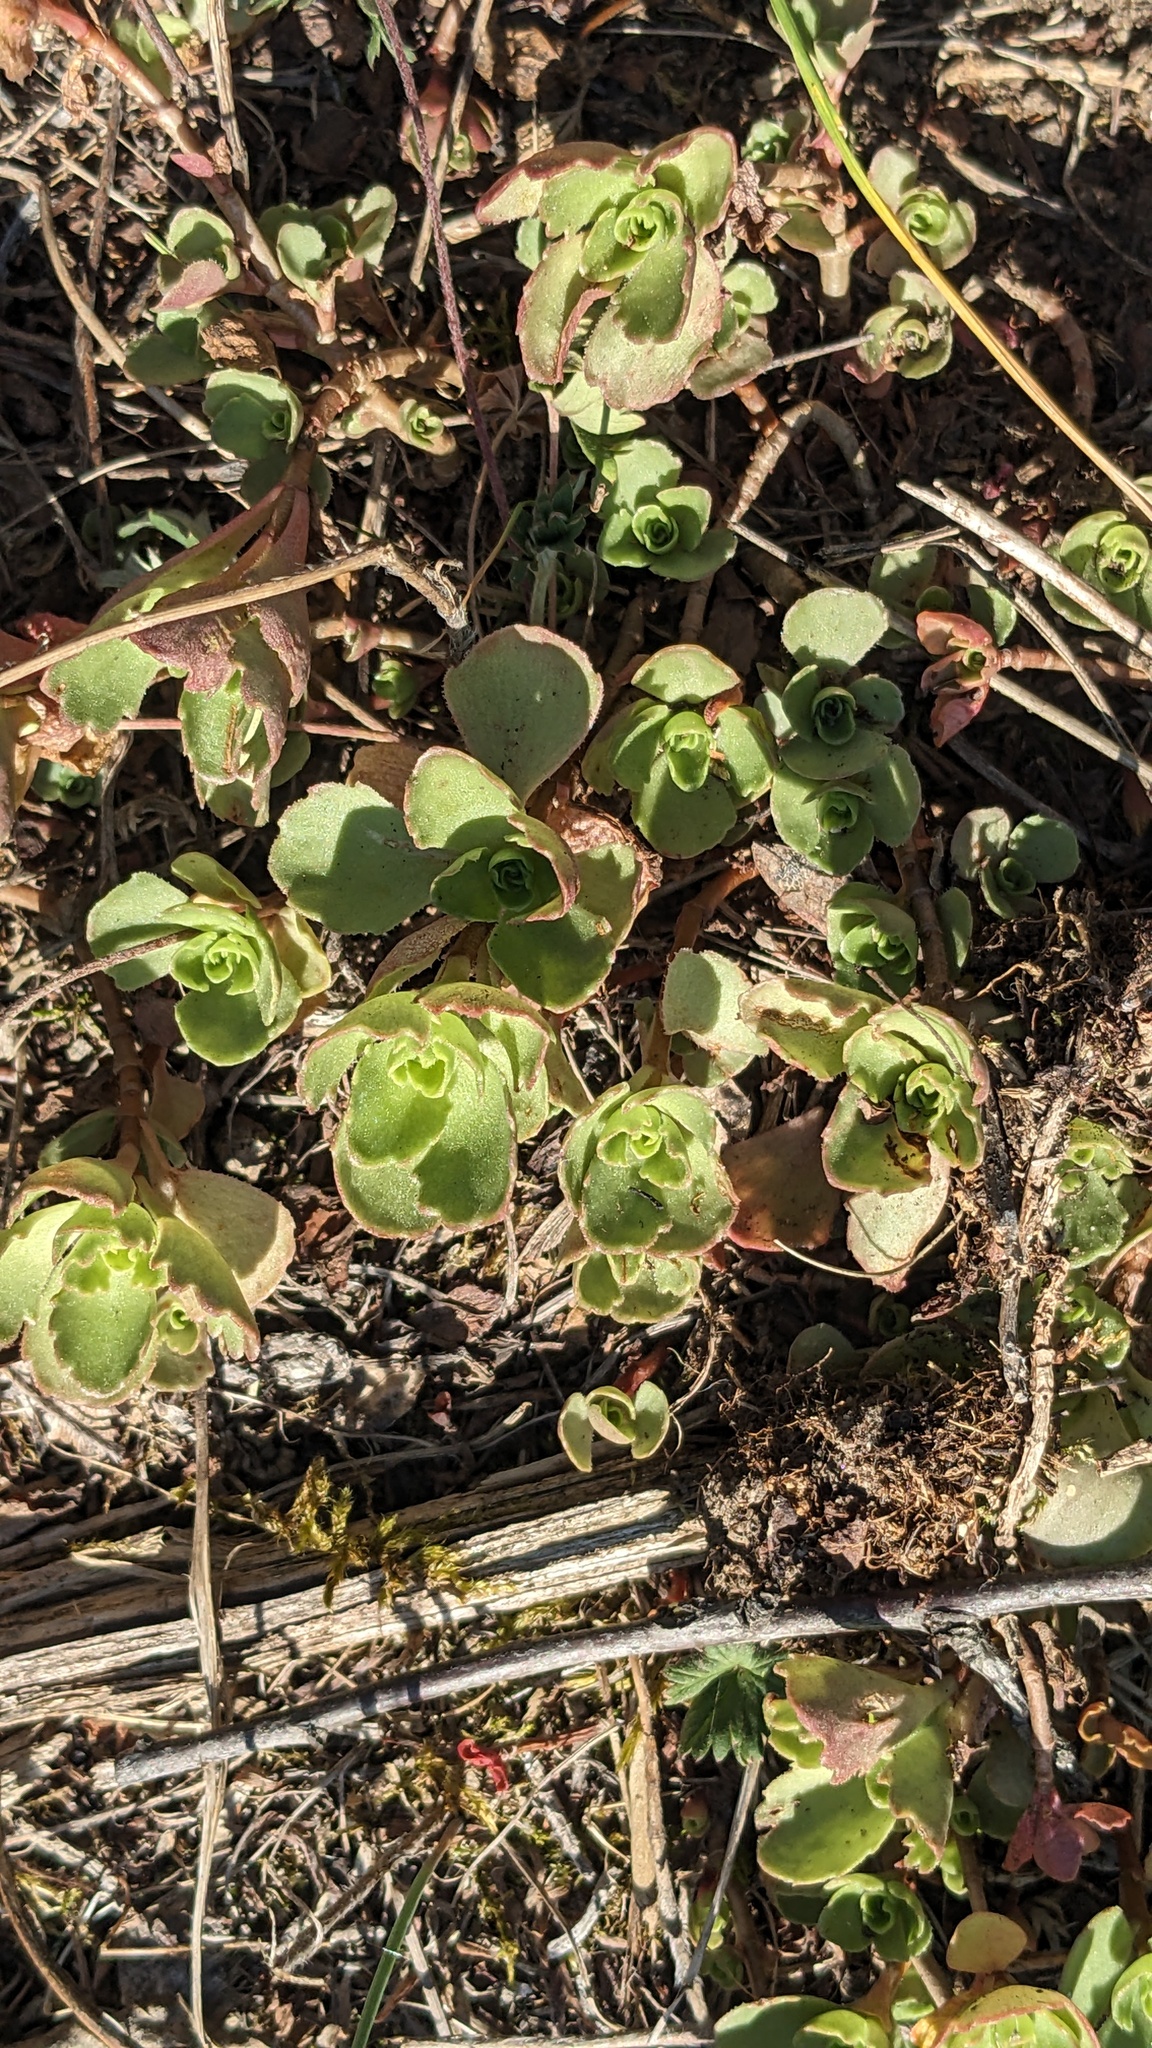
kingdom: Plantae
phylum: Tracheophyta
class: Magnoliopsida
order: Saxifragales
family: Crassulaceae
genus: Phedimus
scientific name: Phedimus spurius
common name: Caucasian stonecrop
